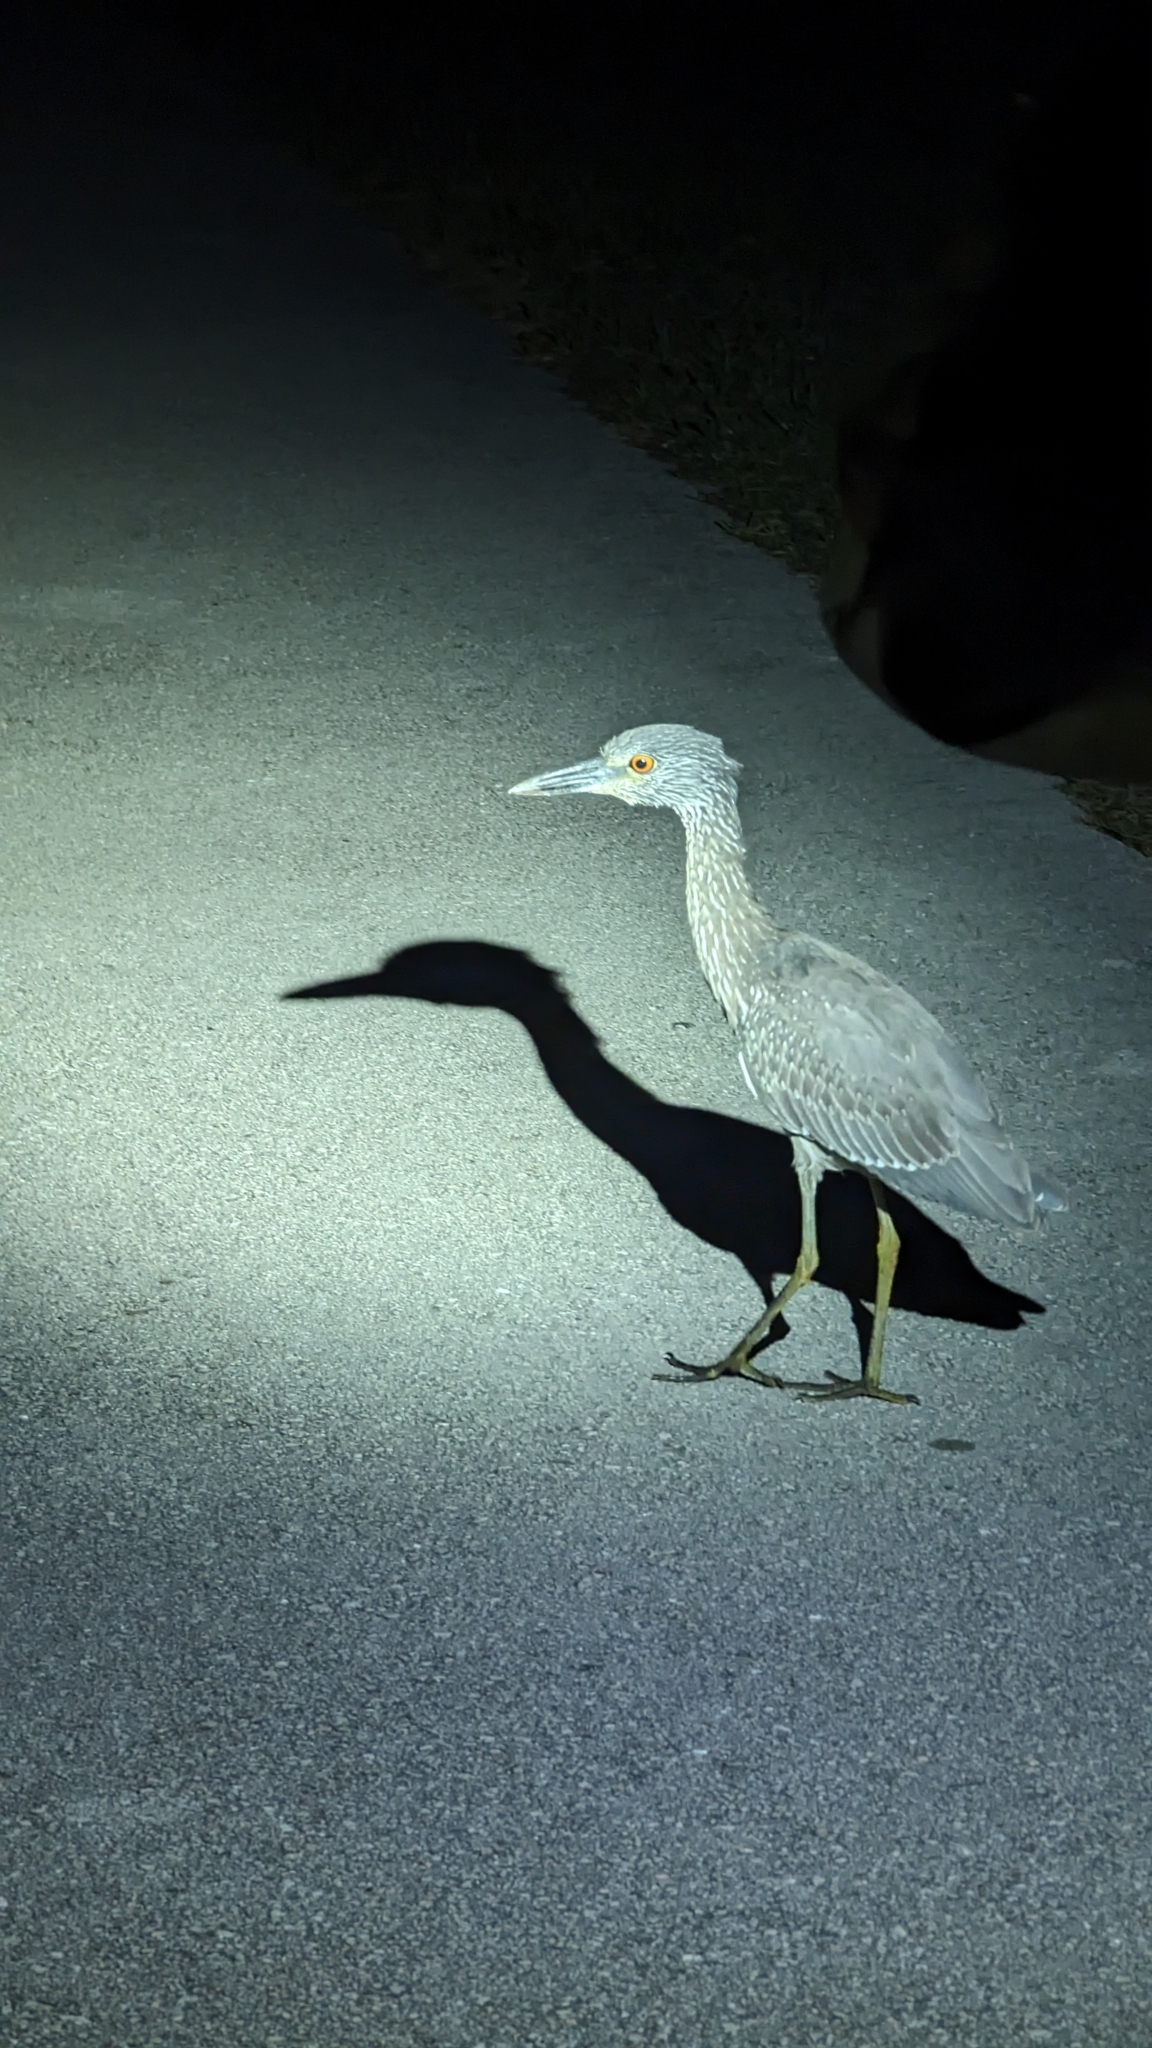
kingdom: Animalia
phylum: Chordata
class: Aves
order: Pelecaniformes
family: Ardeidae
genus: Nyctanassa
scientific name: Nyctanassa violacea
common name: Yellow-crowned night heron
